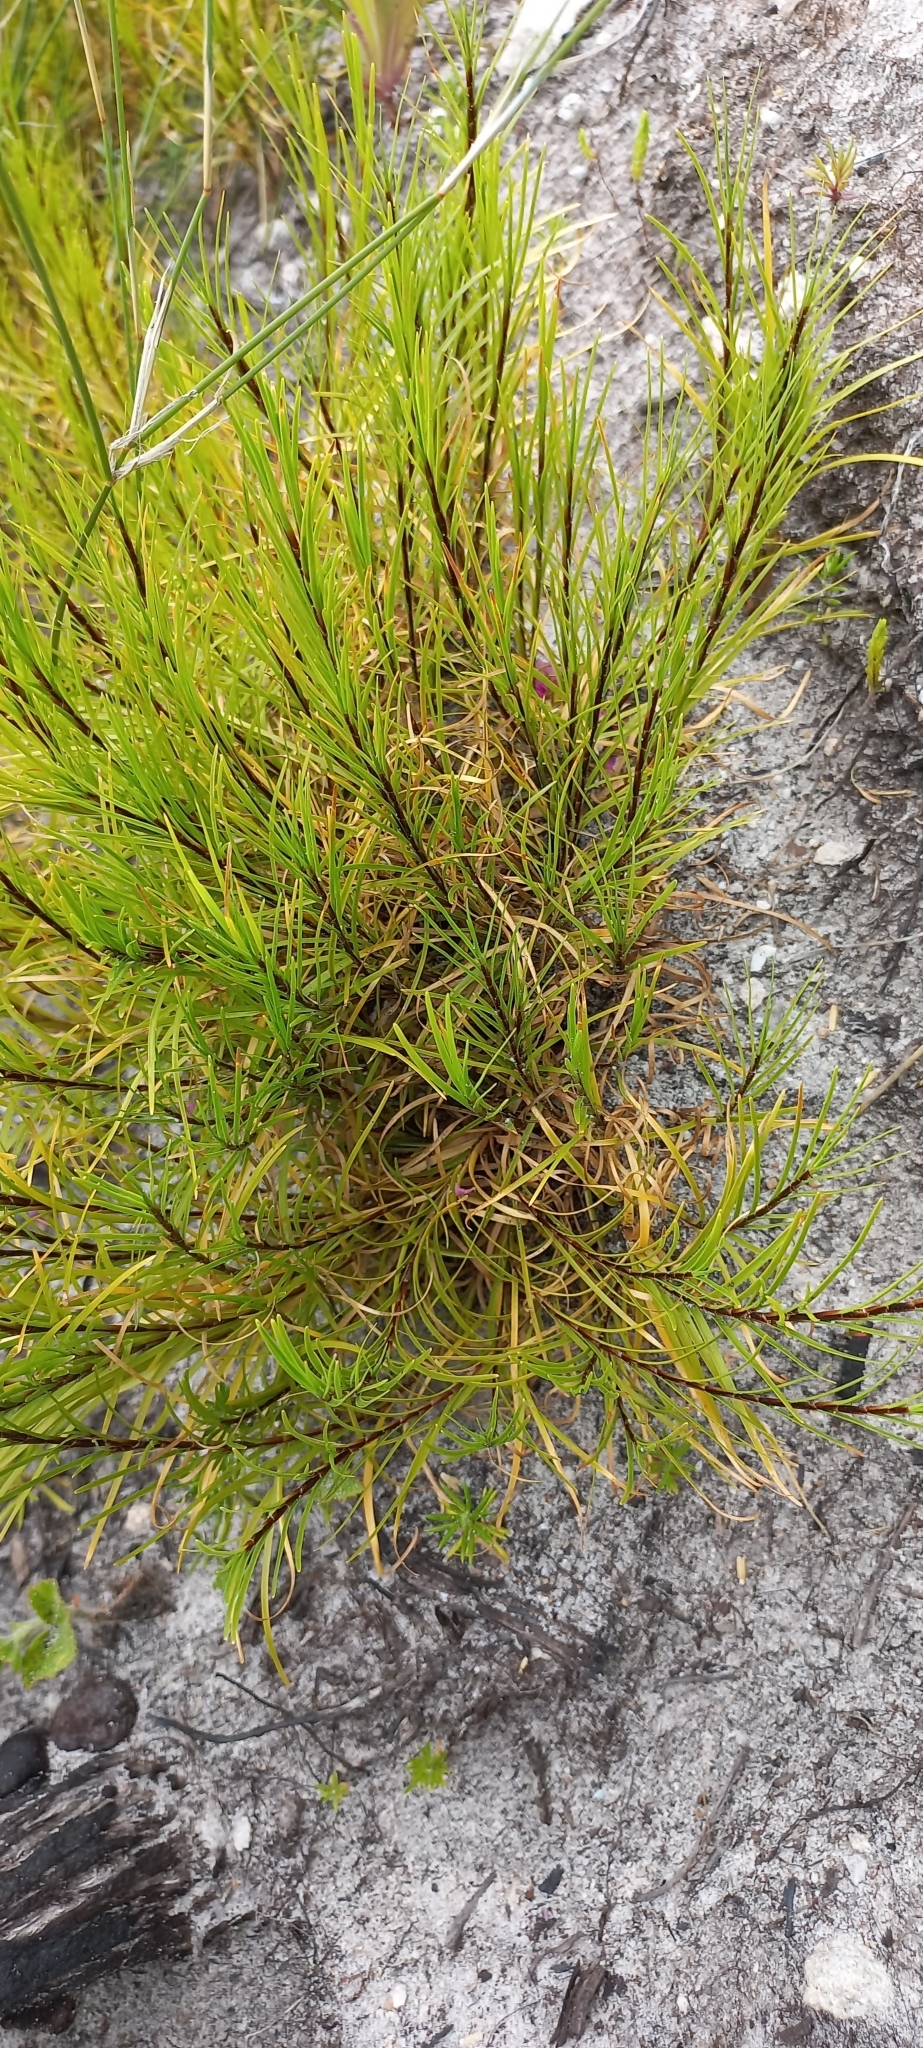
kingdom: Plantae
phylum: Tracheophyta
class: Liliopsida
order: Poales
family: Cyperaceae
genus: Ficinia
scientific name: Ficinia ramosissima
